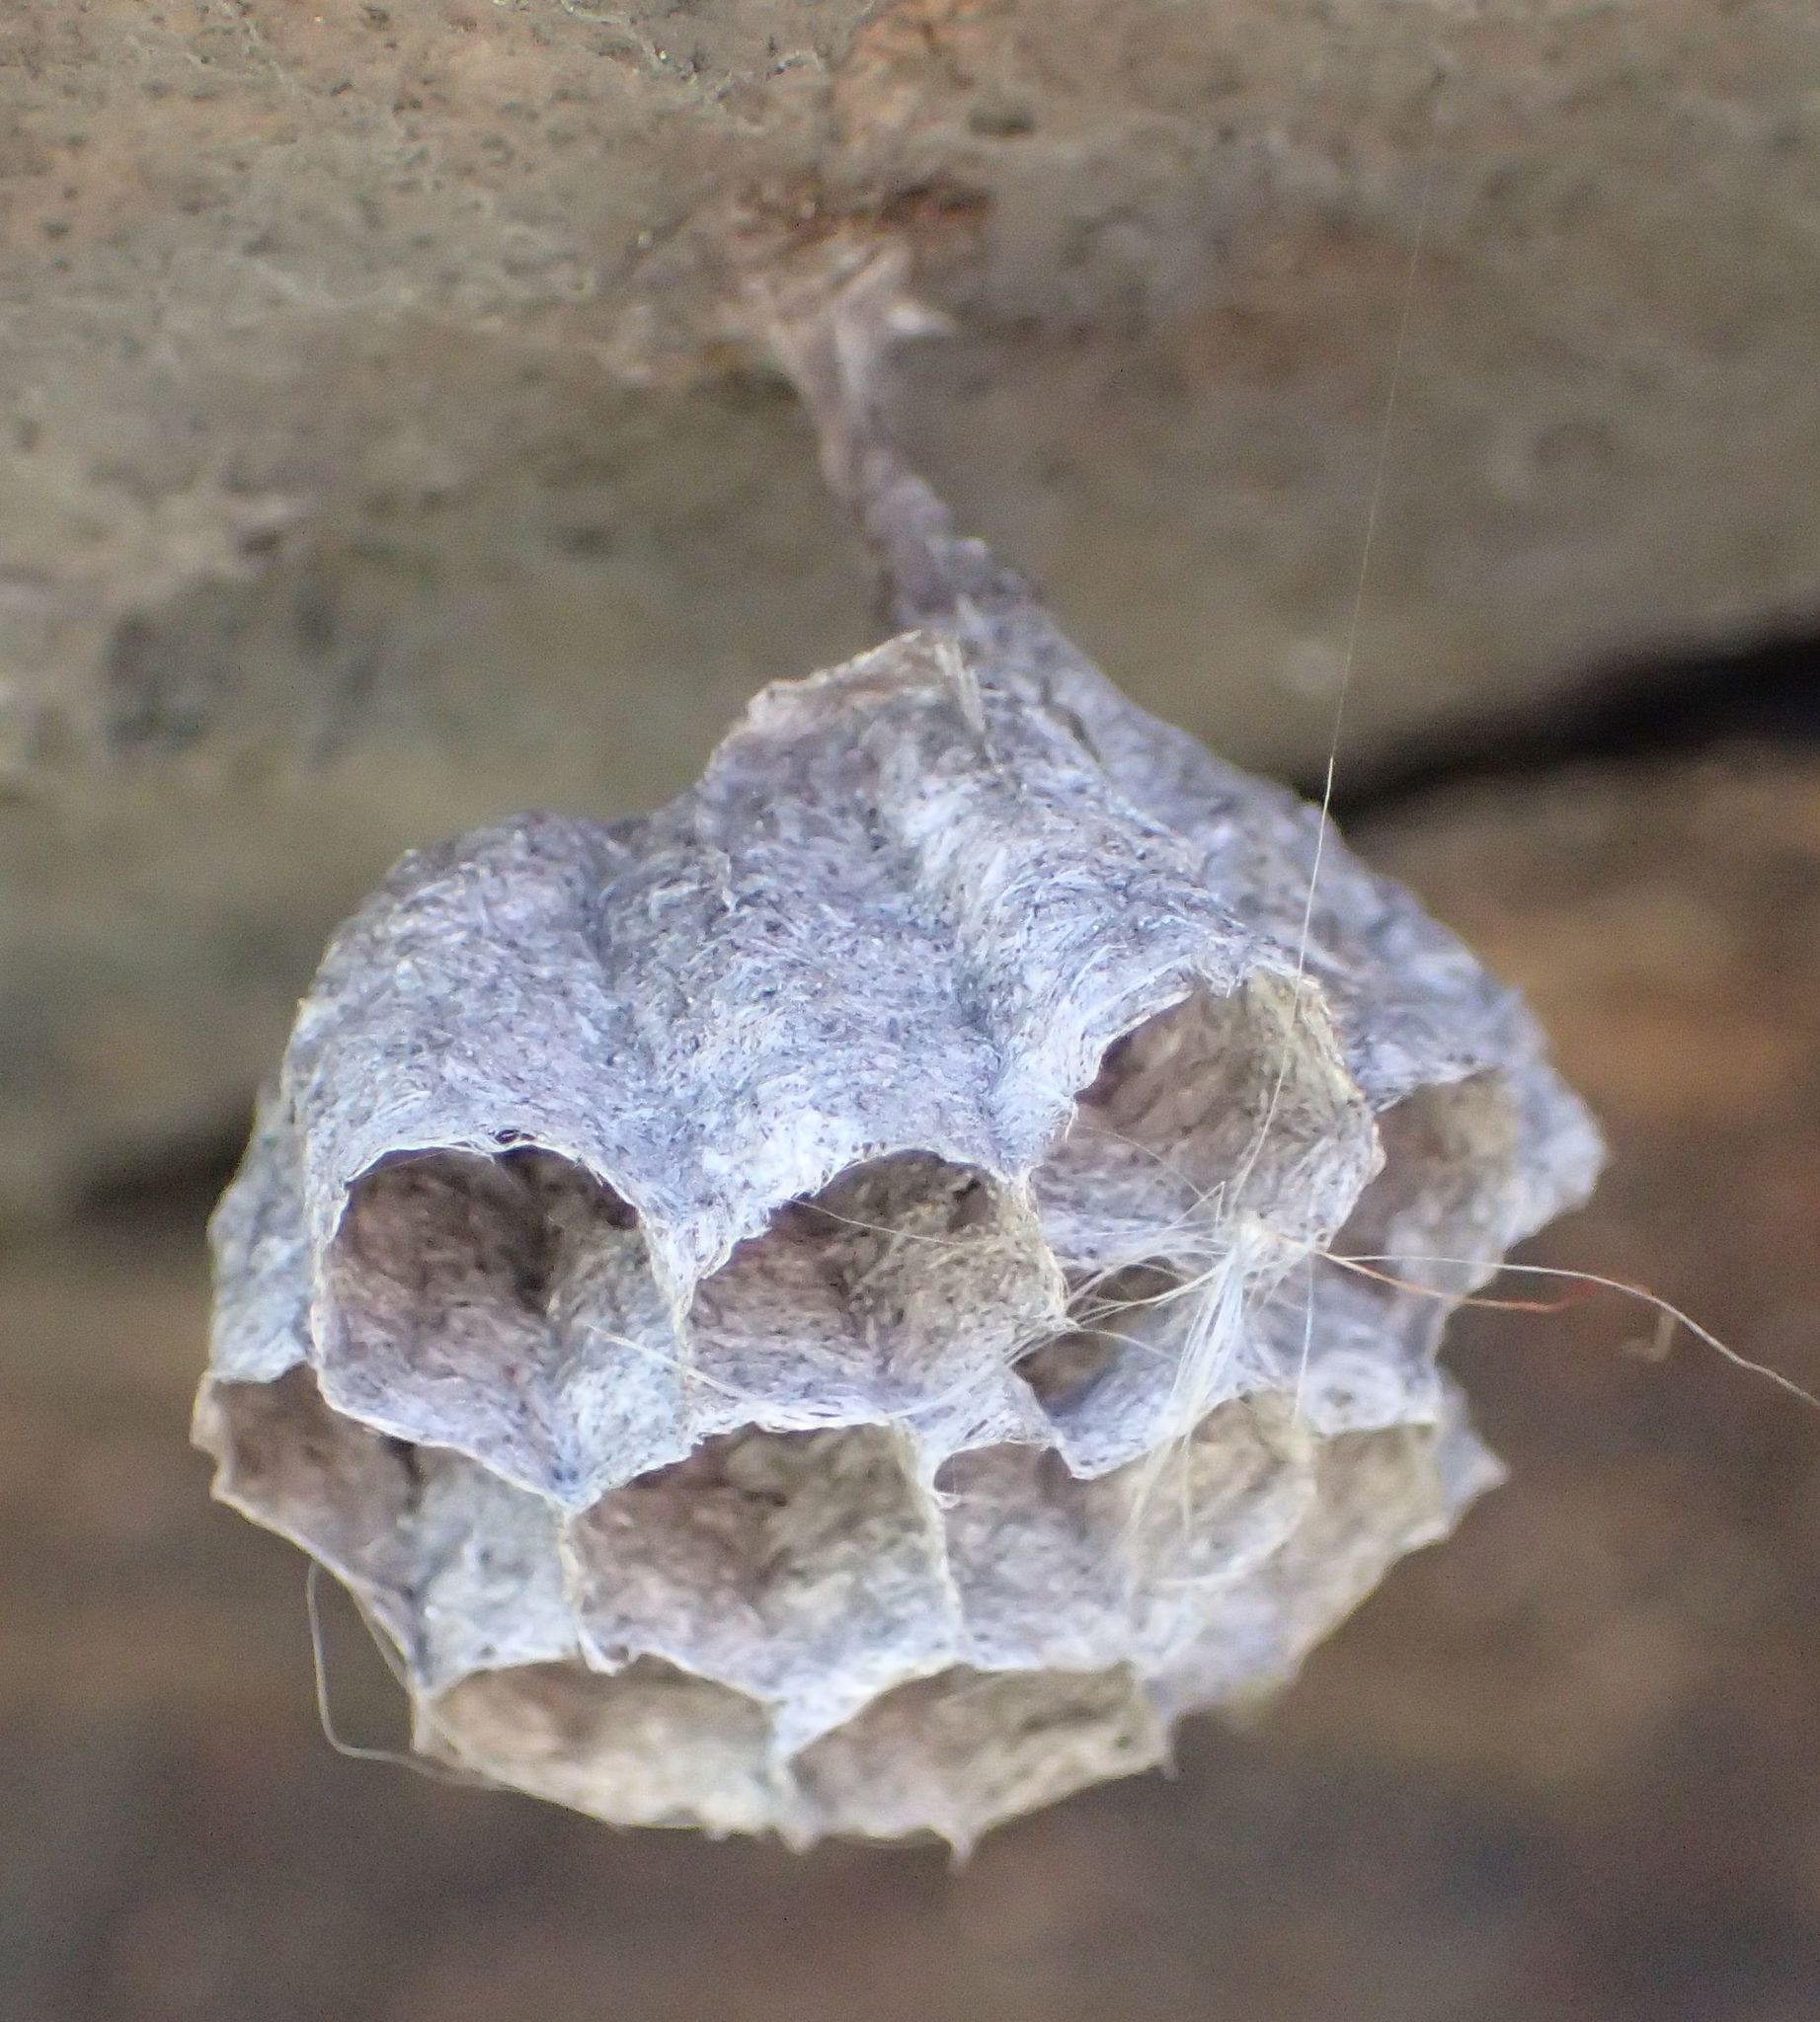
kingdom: Animalia
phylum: Arthropoda
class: Insecta
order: Hymenoptera
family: Eumenidae
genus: Polistes
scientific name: Polistes
